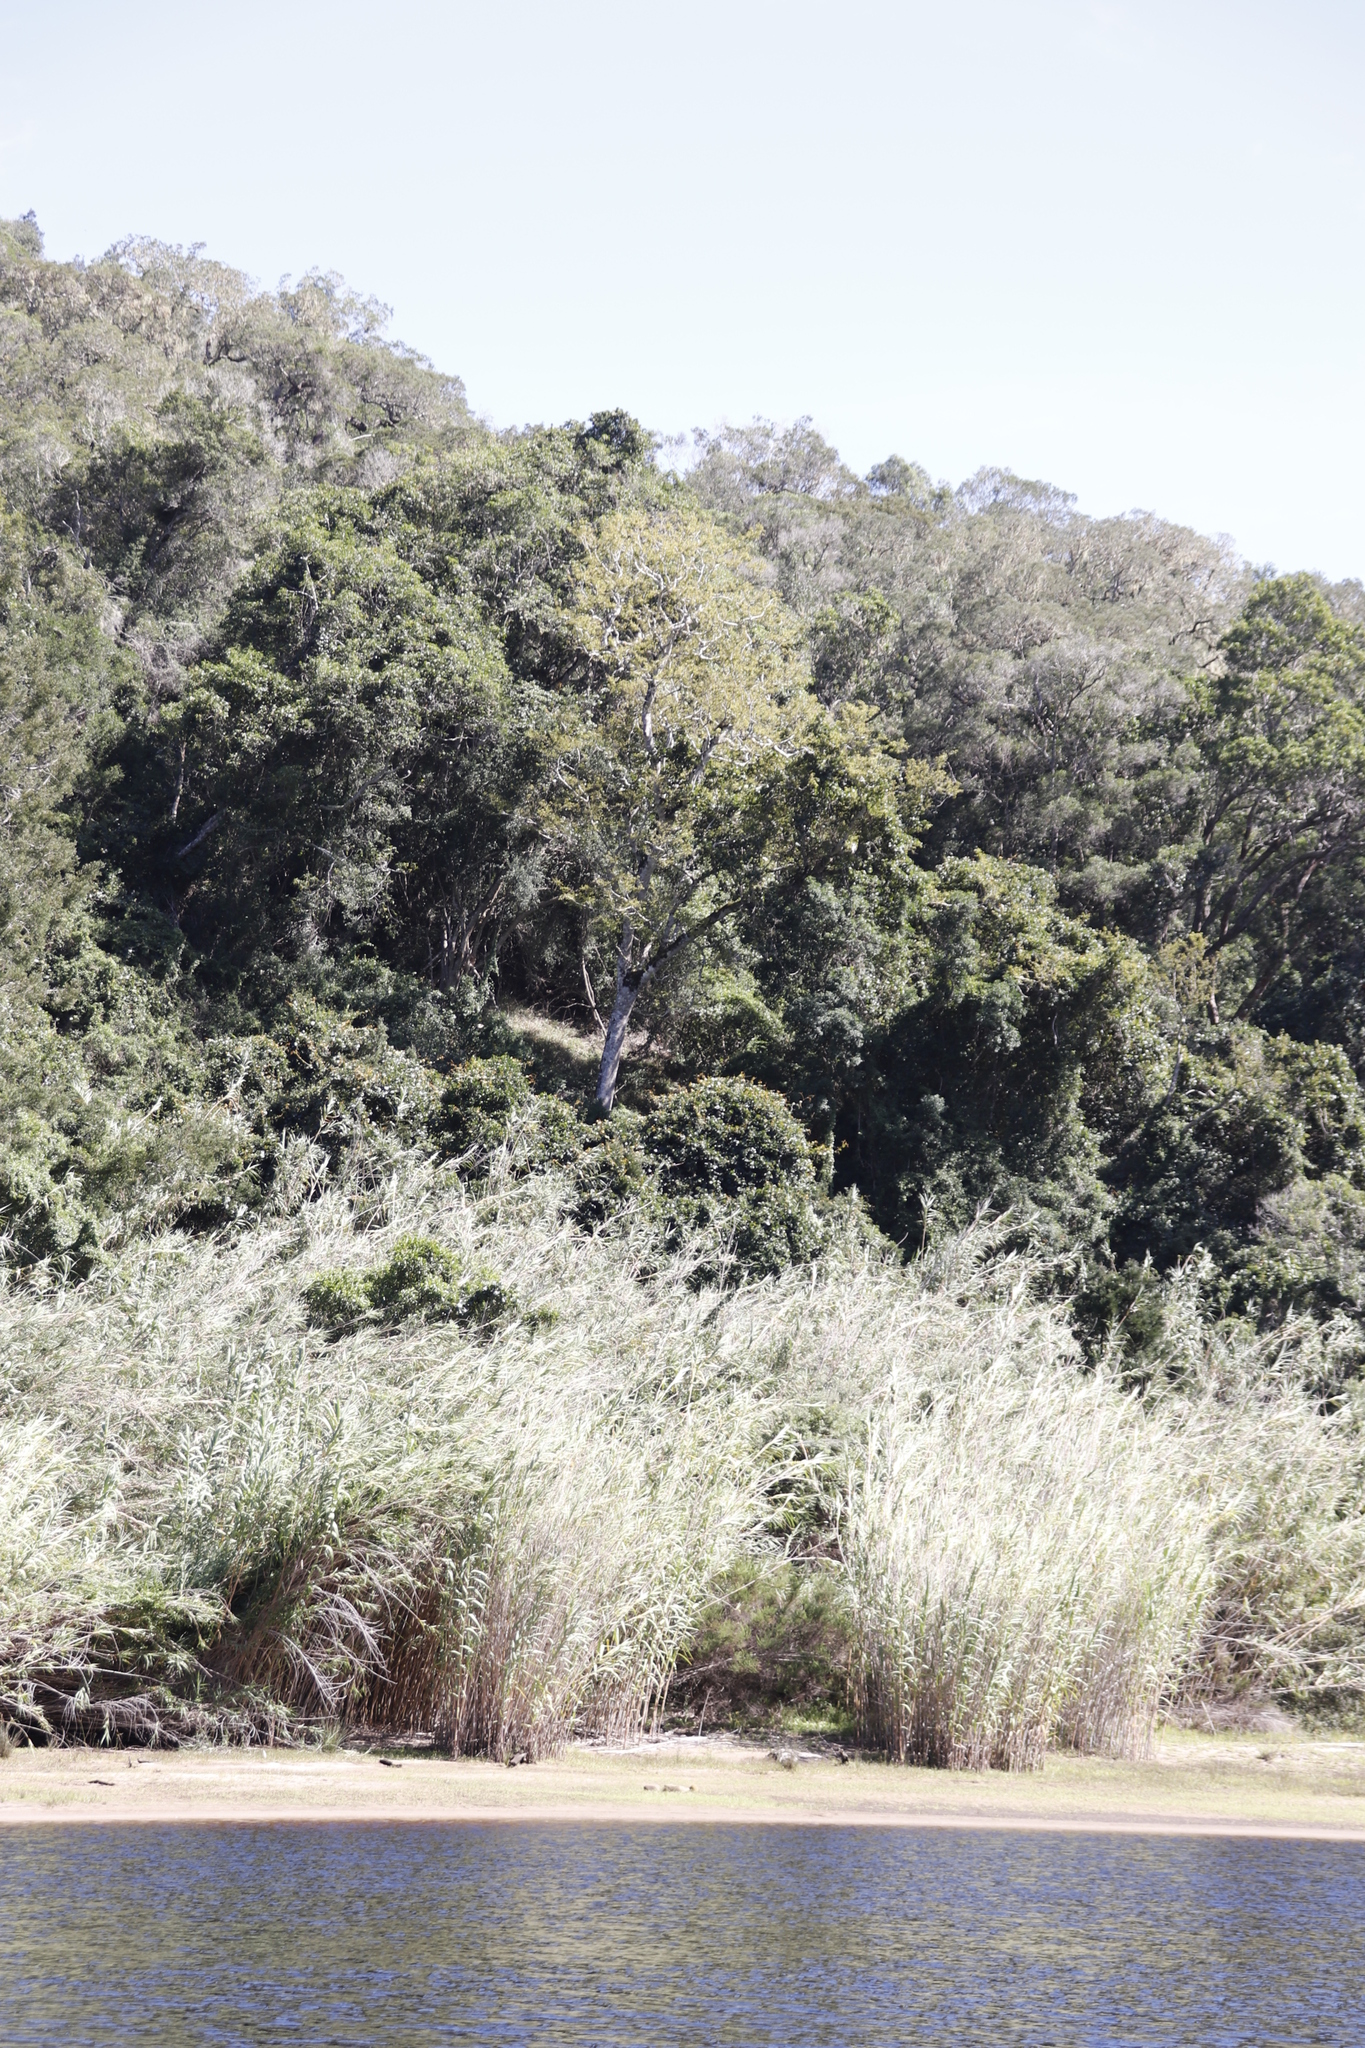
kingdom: Plantae
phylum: Tracheophyta
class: Liliopsida
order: Poales
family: Poaceae
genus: Phragmites
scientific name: Phragmites australis
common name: Common reed
